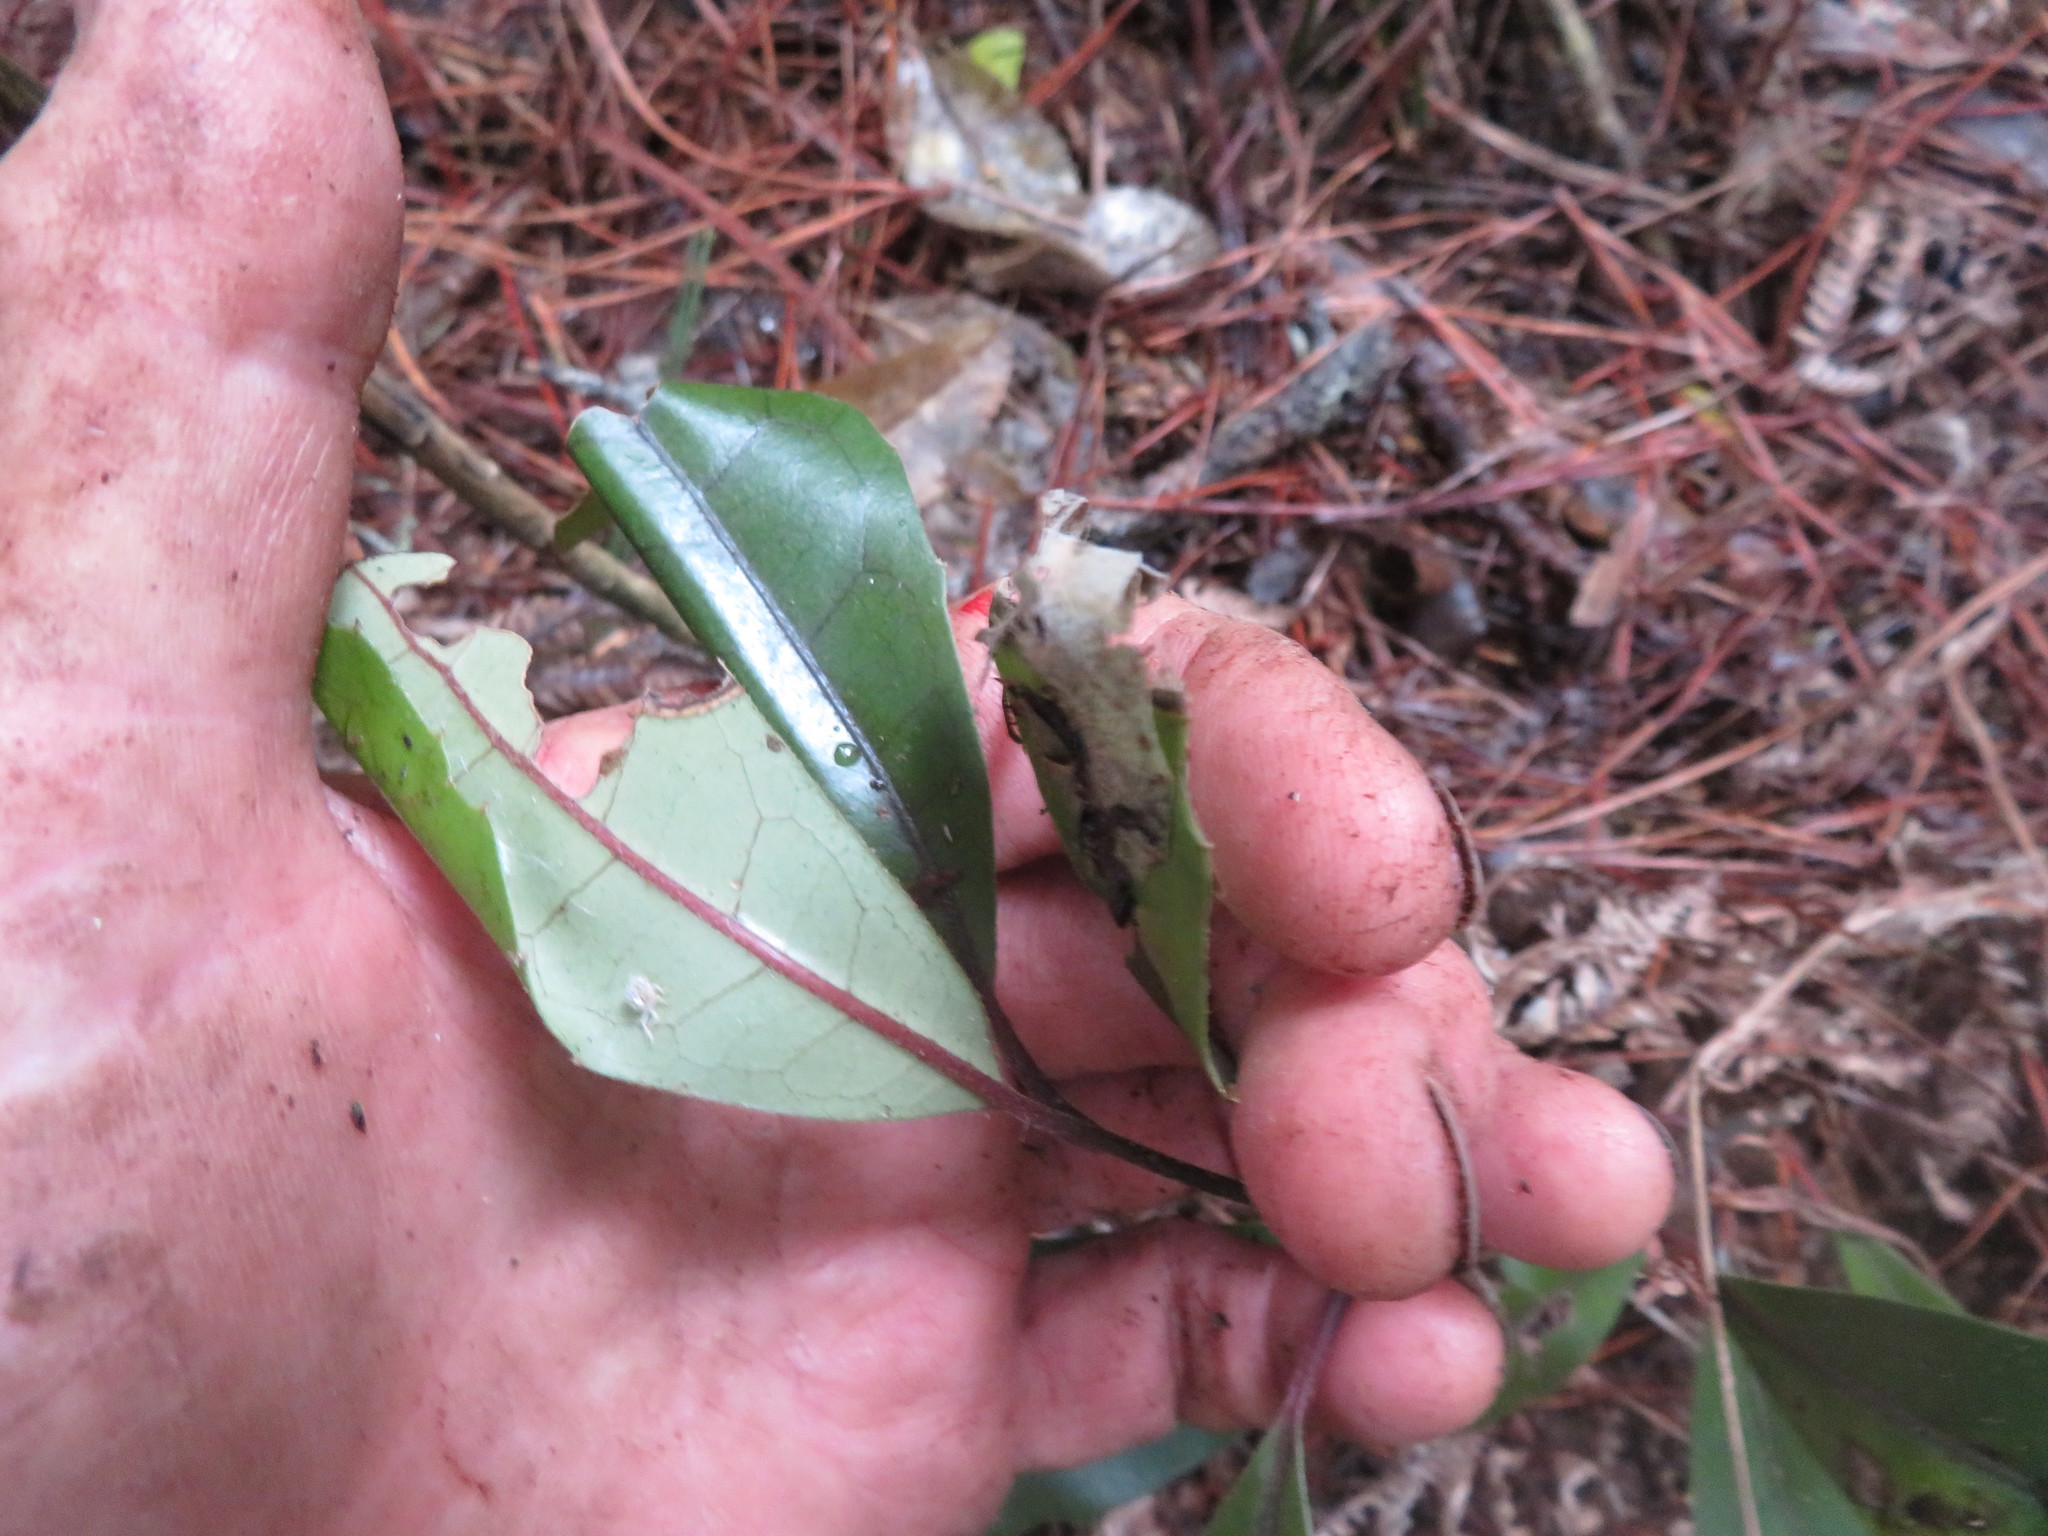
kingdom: Plantae
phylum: Tracheophyta
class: Magnoliopsida
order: Laurales
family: Monimiaceae
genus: Hedycarya
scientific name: Hedycarya arborea
